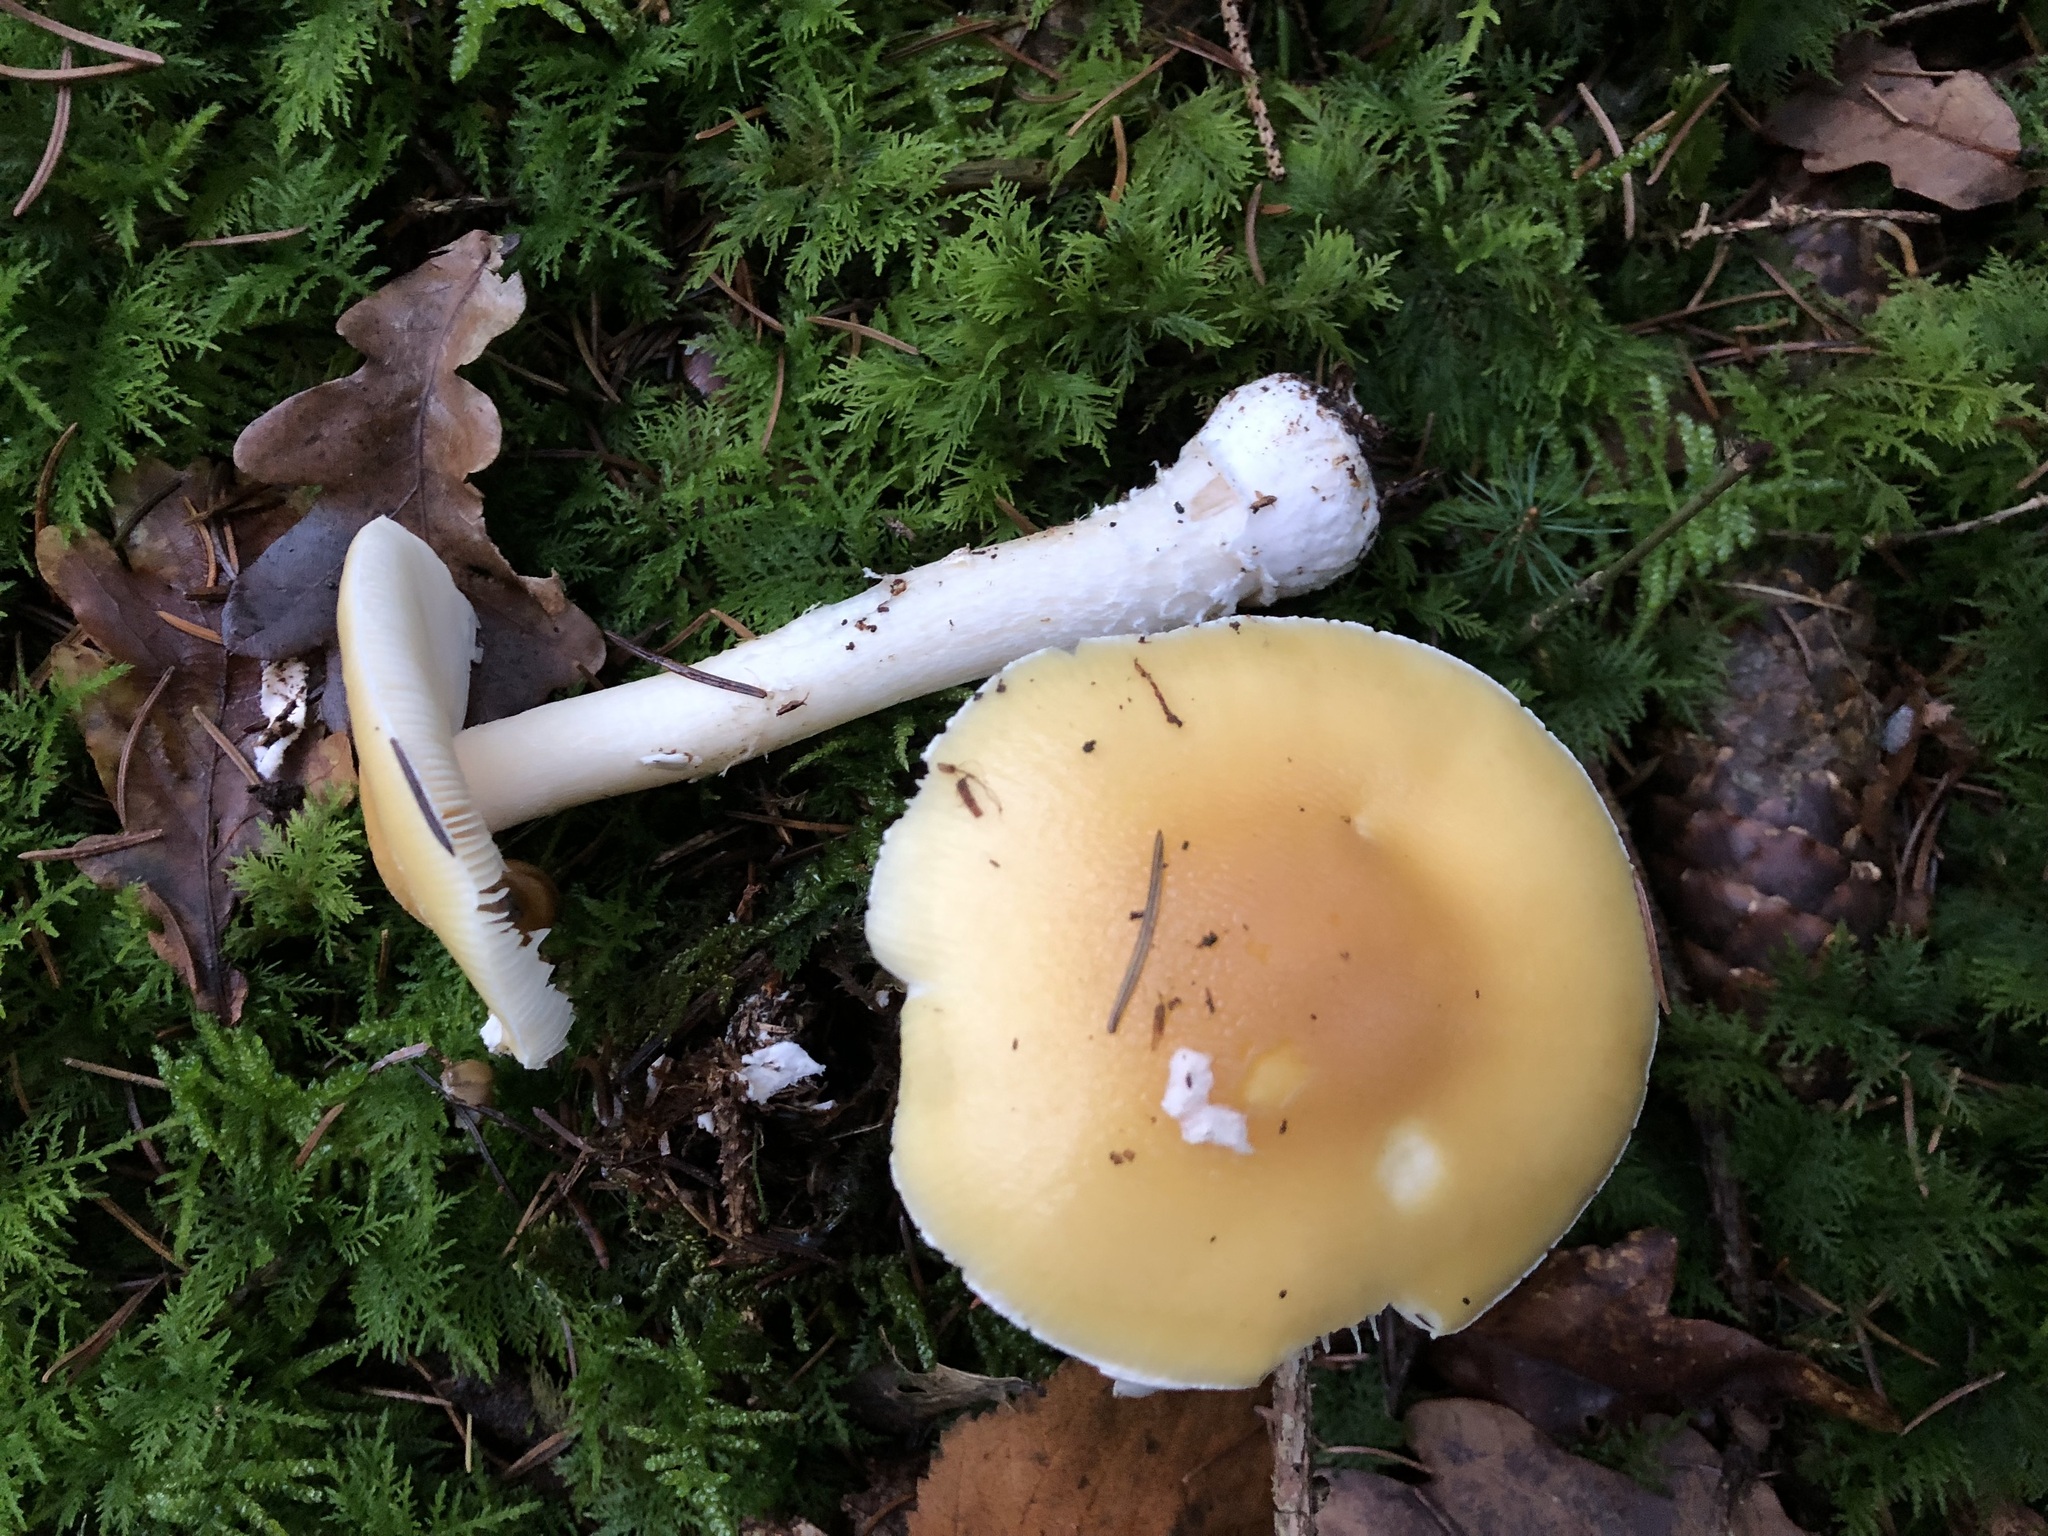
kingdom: Fungi
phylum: Basidiomycota
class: Agaricomycetes
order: Agaricales
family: Amanitaceae
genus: Amanita
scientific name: Amanita gemmata
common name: Jewelled amanita
